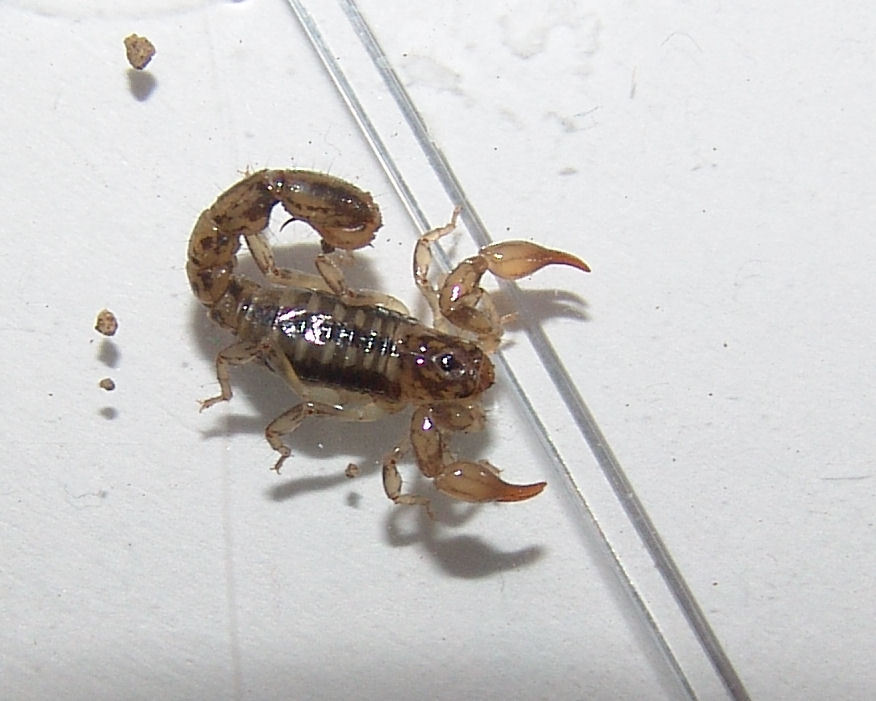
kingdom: Animalia
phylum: Arthropoda
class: Arachnida
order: Scorpiones
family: Superstitioniidae
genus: Superstitionia
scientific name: Superstitionia donensis
